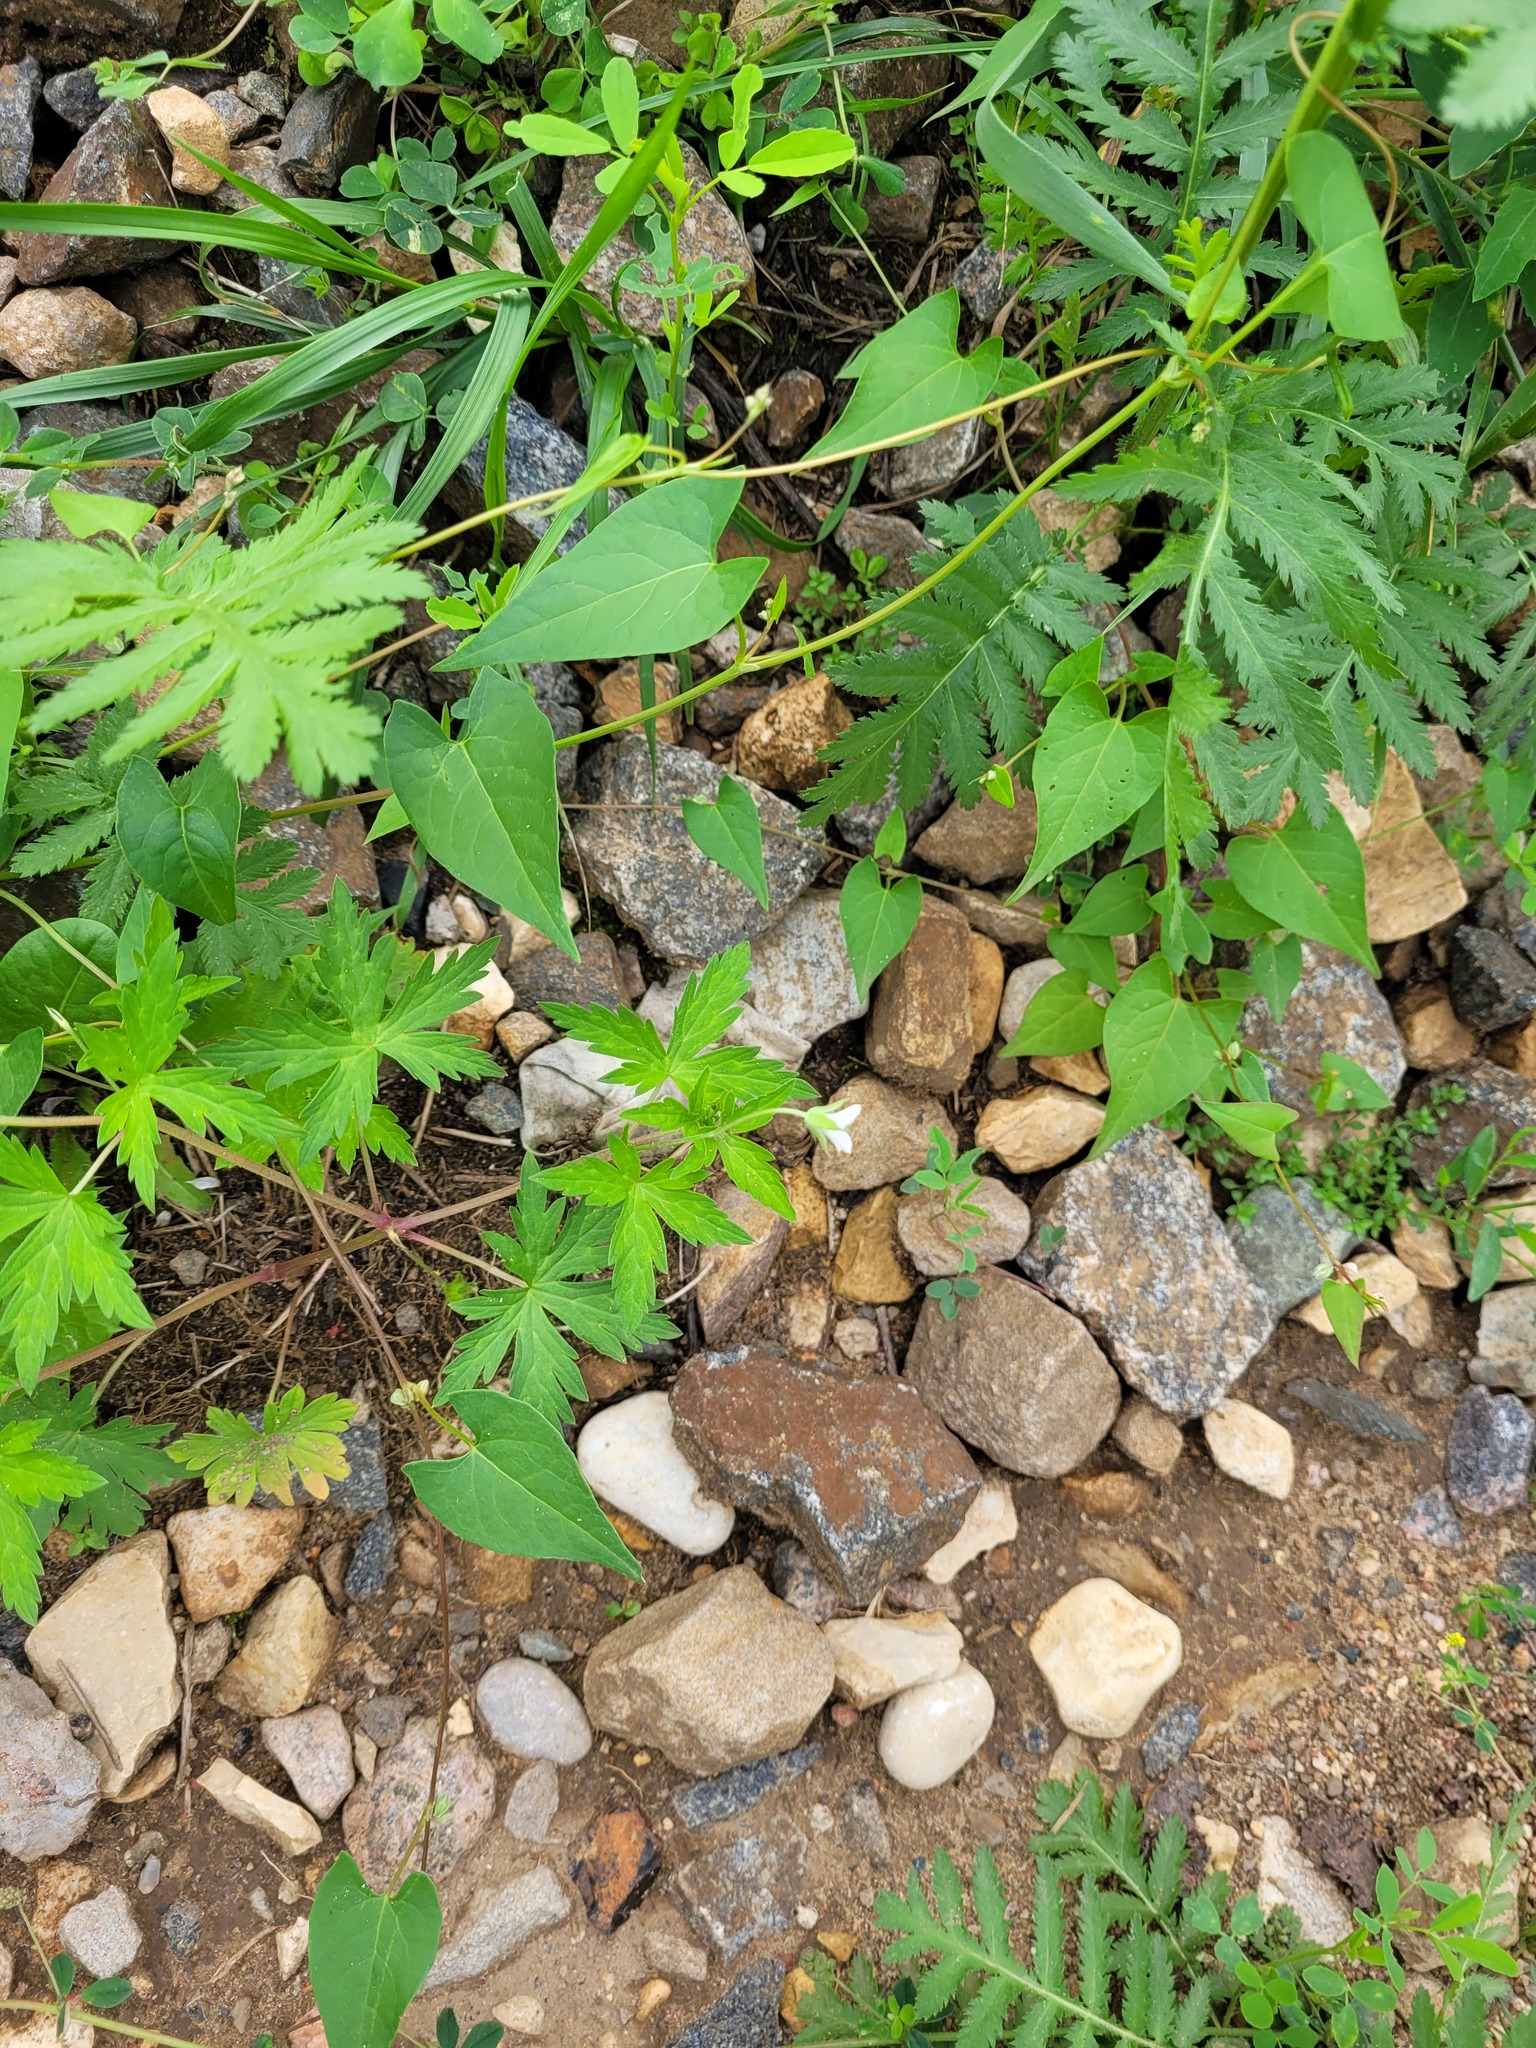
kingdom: Plantae
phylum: Tracheophyta
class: Magnoliopsida
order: Geraniales
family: Geraniaceae
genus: Geranium
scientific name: Geranium sibiricum
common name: Siberian crane's-bill
